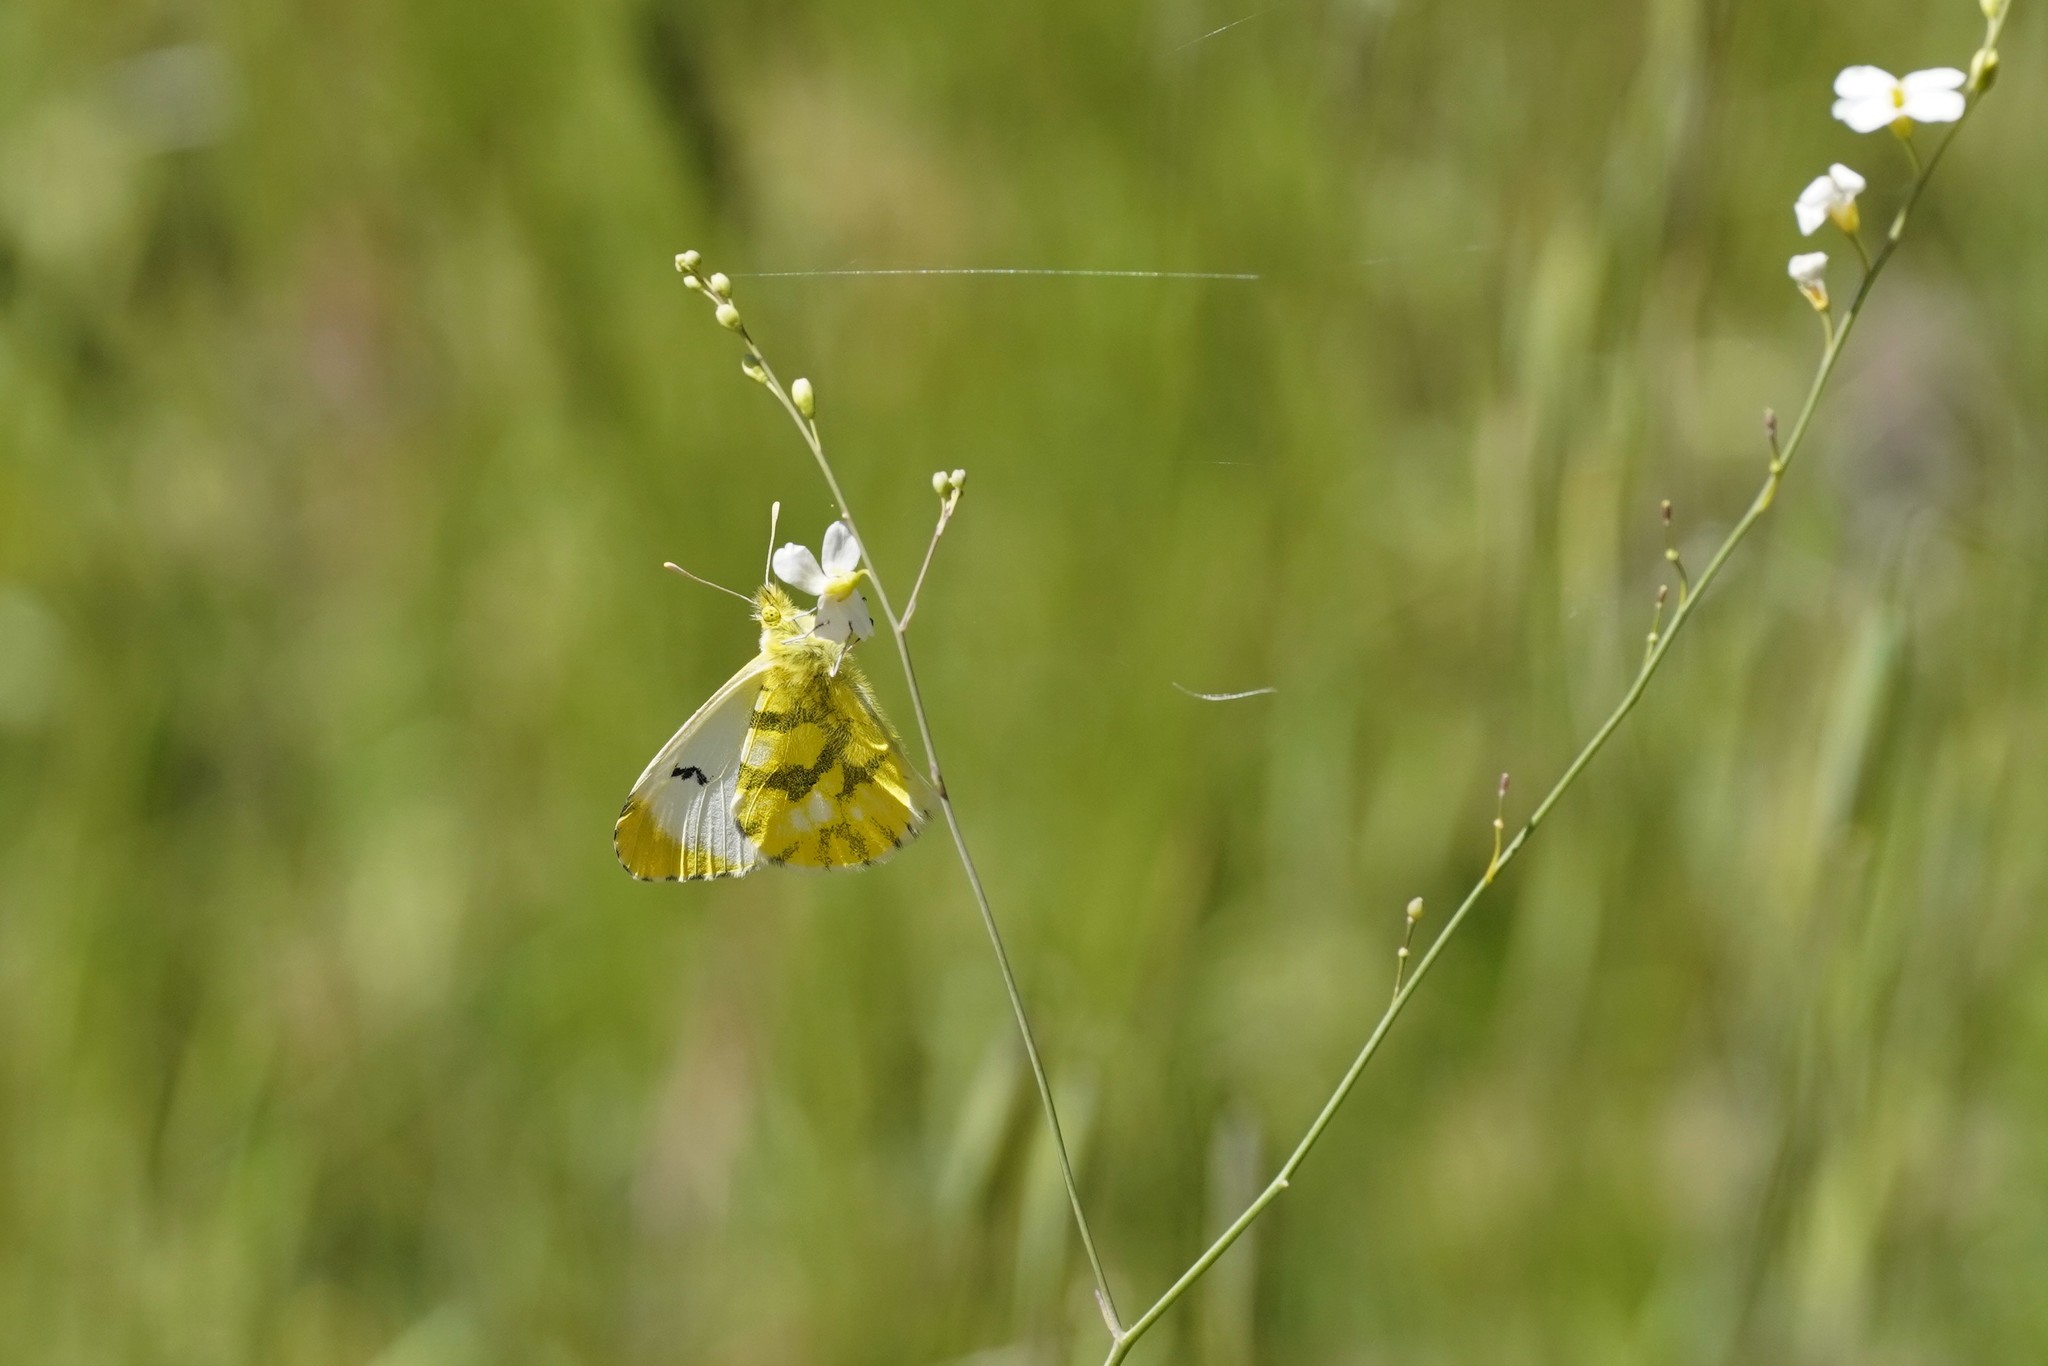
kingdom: Animalia
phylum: Arthropoda
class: Insecta
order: Lepidoptera
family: Pieridae
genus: Anthocharis
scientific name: Anthocharis euphenoides
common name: Provence orange-tip
